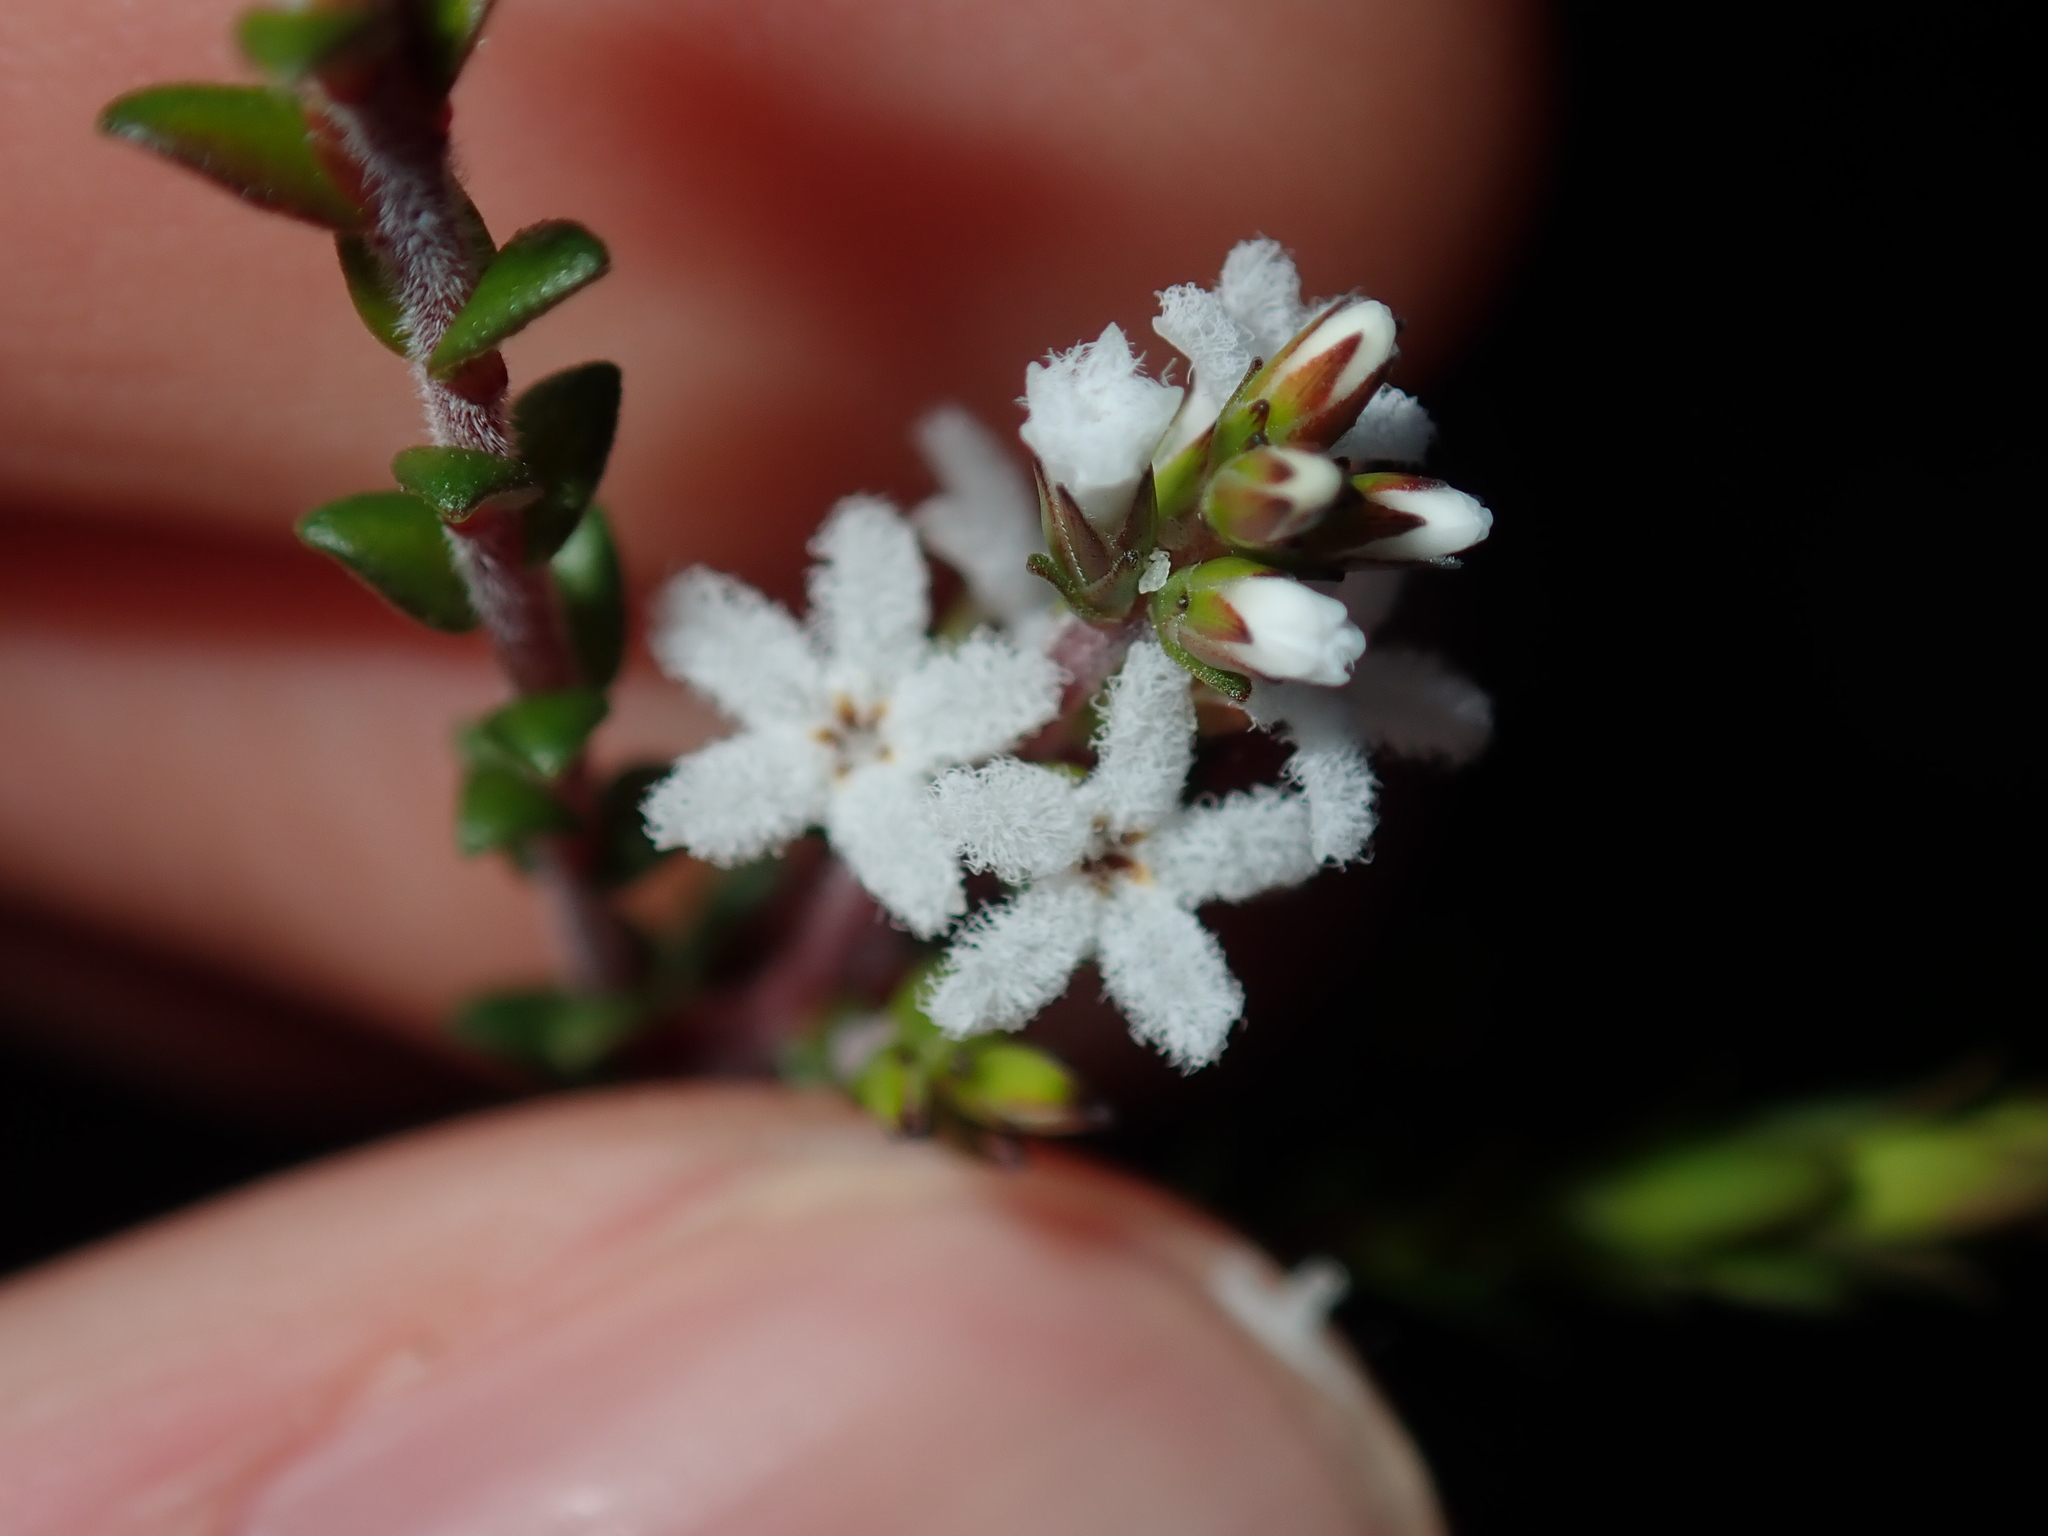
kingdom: Plantae
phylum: Tracheophyta
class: Magnoliopsida
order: Ericales
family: Ericaceae
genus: Leucopogon
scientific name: Leucopogon microphyllus
